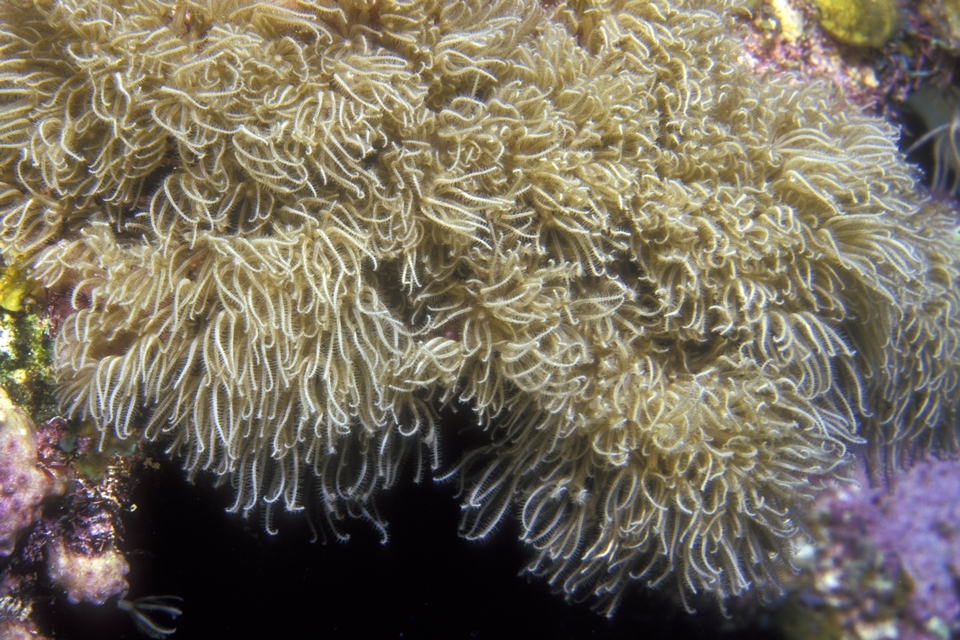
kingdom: Animalia
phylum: Cnidaria
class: Anthozoa
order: Scleralcyonacea
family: Erythropodiidae
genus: Erythropodium
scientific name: Erythropodium caribaeorum
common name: Encrusting gorgonian
